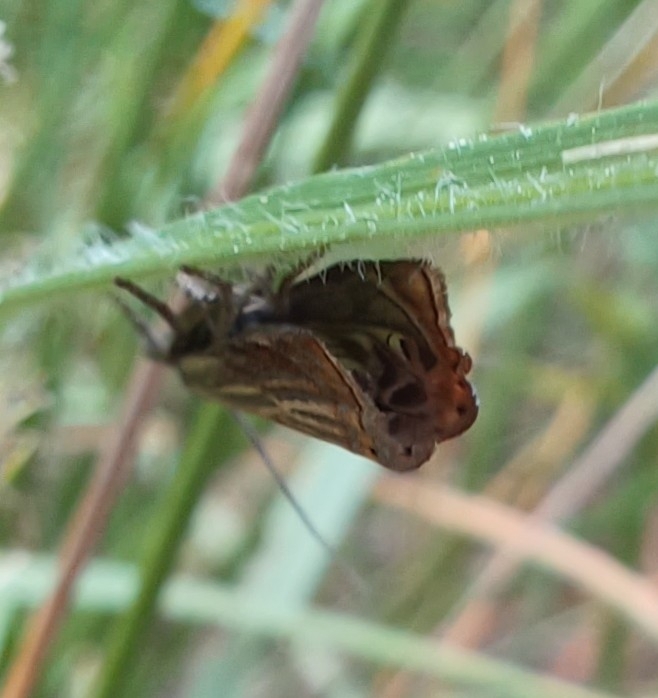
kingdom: Animalia
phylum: Arthropoda
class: Insecta
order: Lepidoptera
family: Crambidae
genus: Chrysoteuchia
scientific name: Chrysoteuchia culmella
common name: Garden grass-veneer
